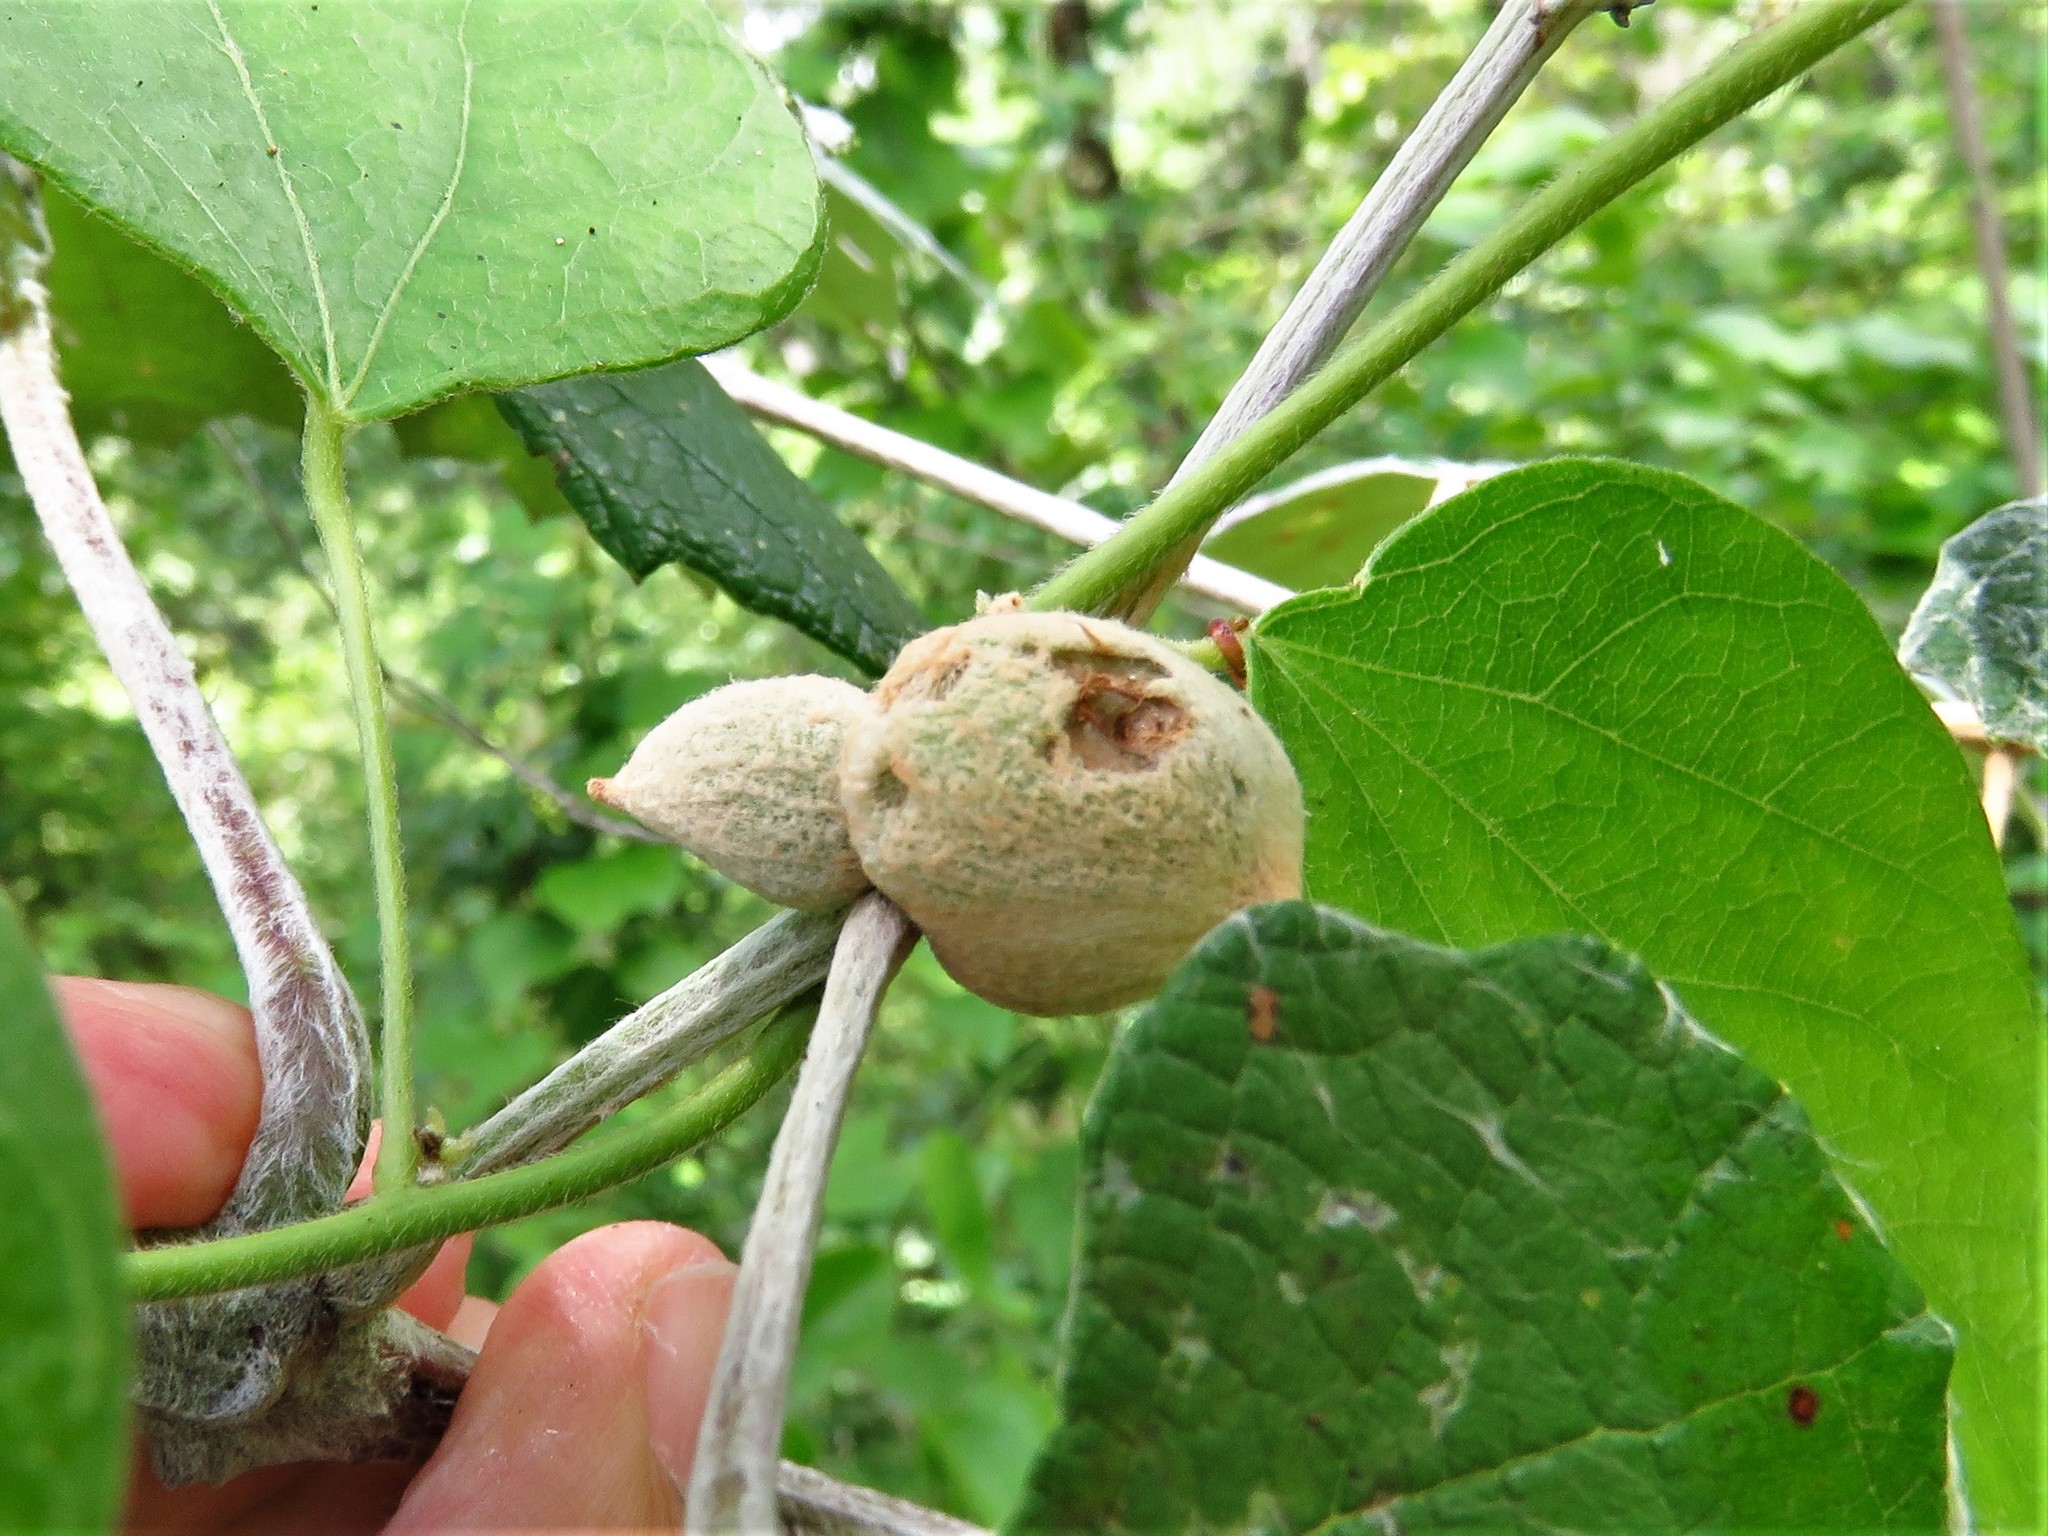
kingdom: Animalia
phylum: Arthropoda
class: Insecta
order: Diptera
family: Cecidomyiidae
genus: Ampelomyia
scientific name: Ampelomyia vitispomum
